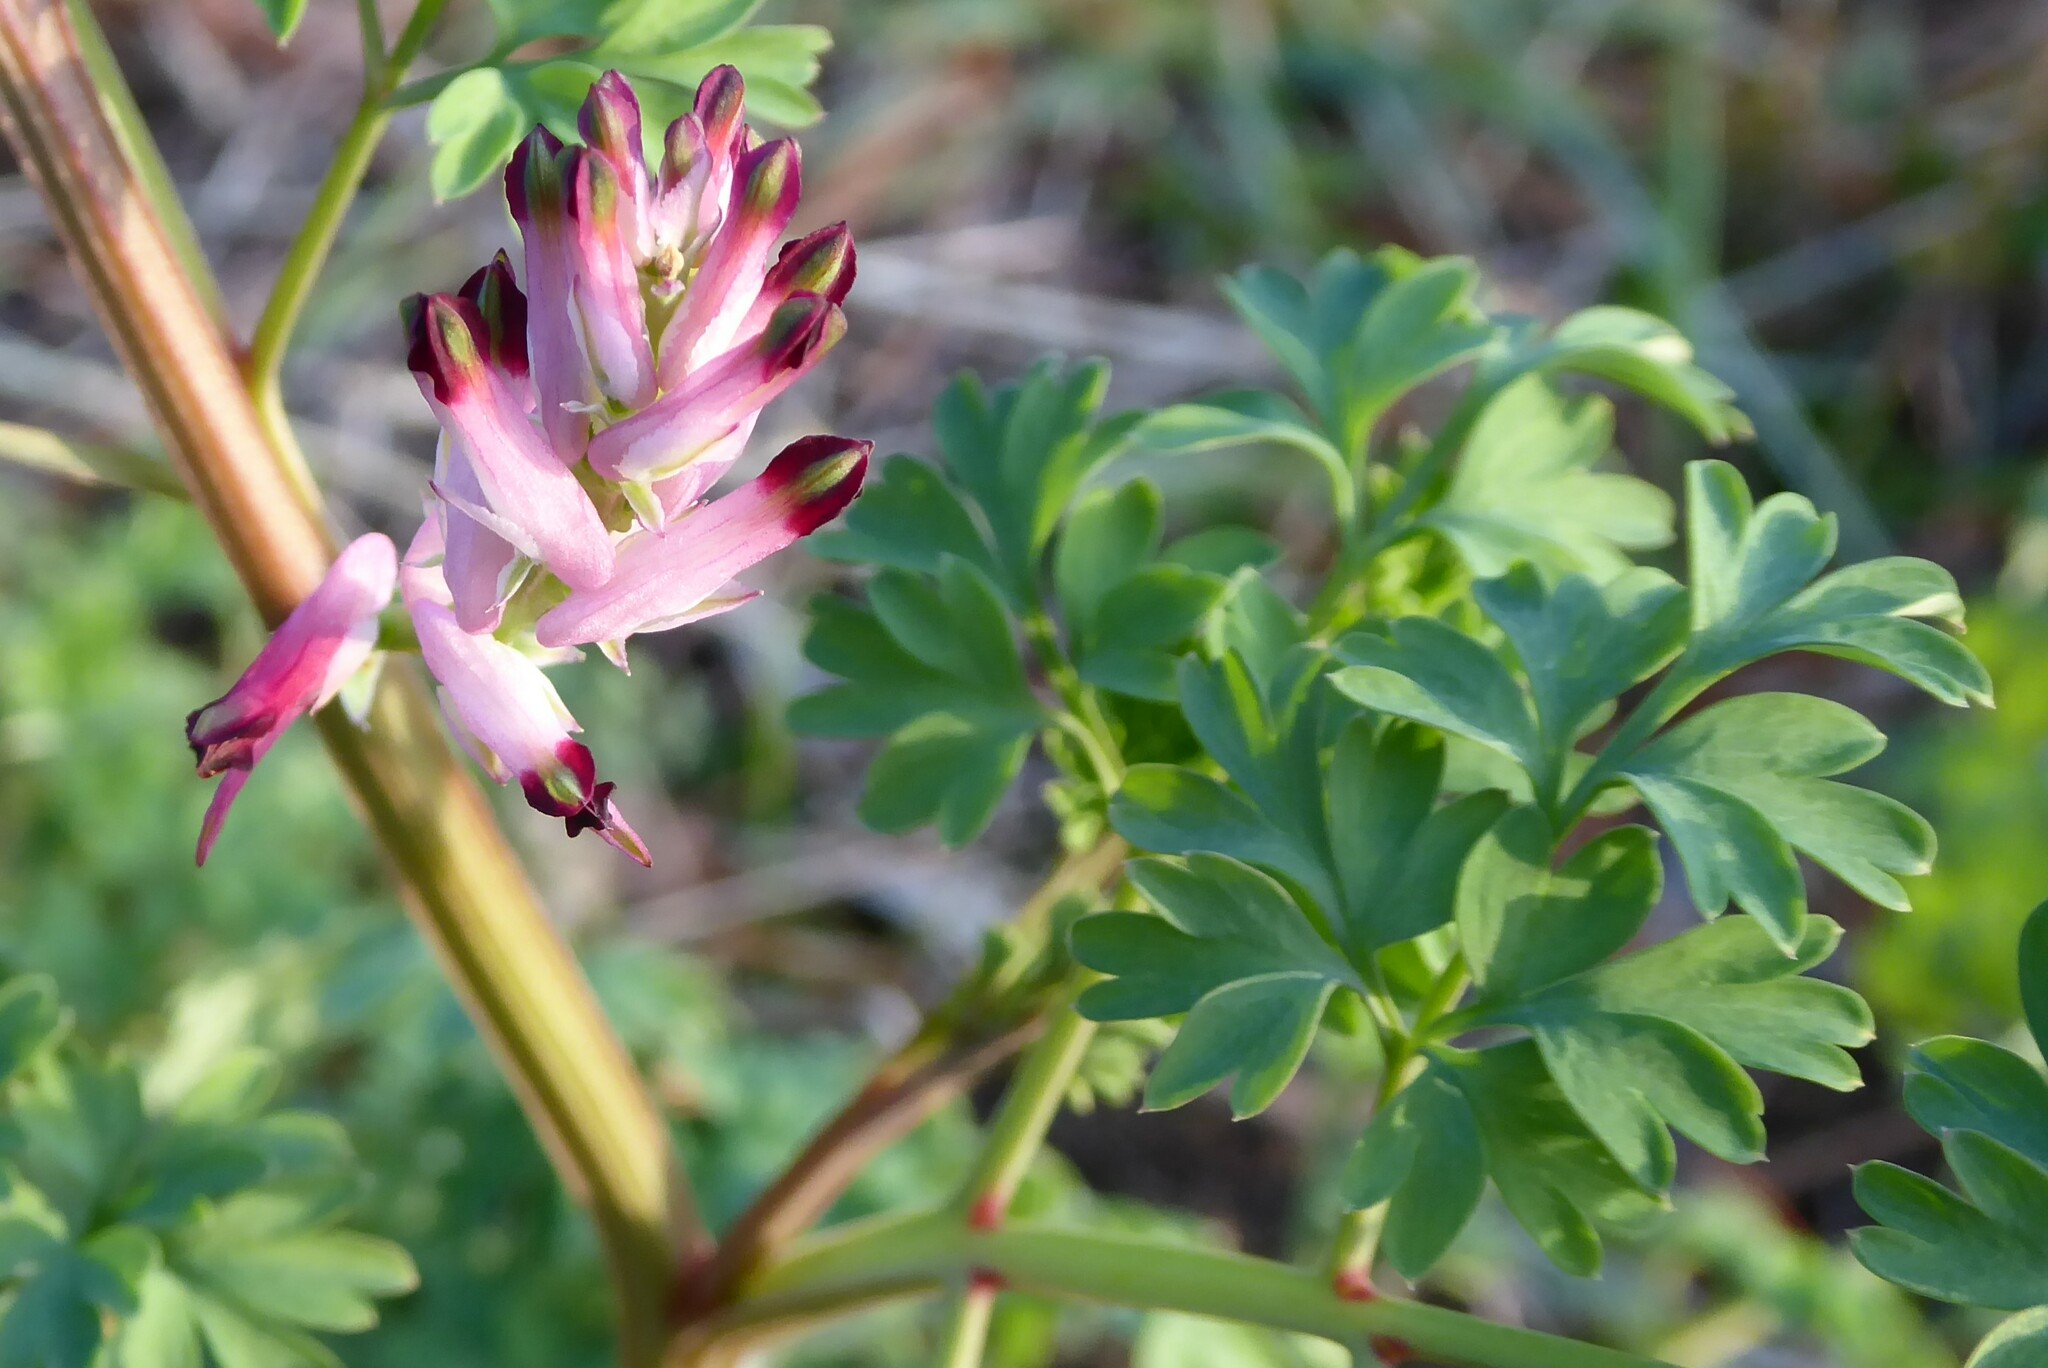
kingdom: Plantae
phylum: Tracheophyta
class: Magnoliopsida
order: Ranunculales
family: Papaveraceae
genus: Fumaria
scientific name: Fumaria bastardii
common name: Tall ramping-fumitory
